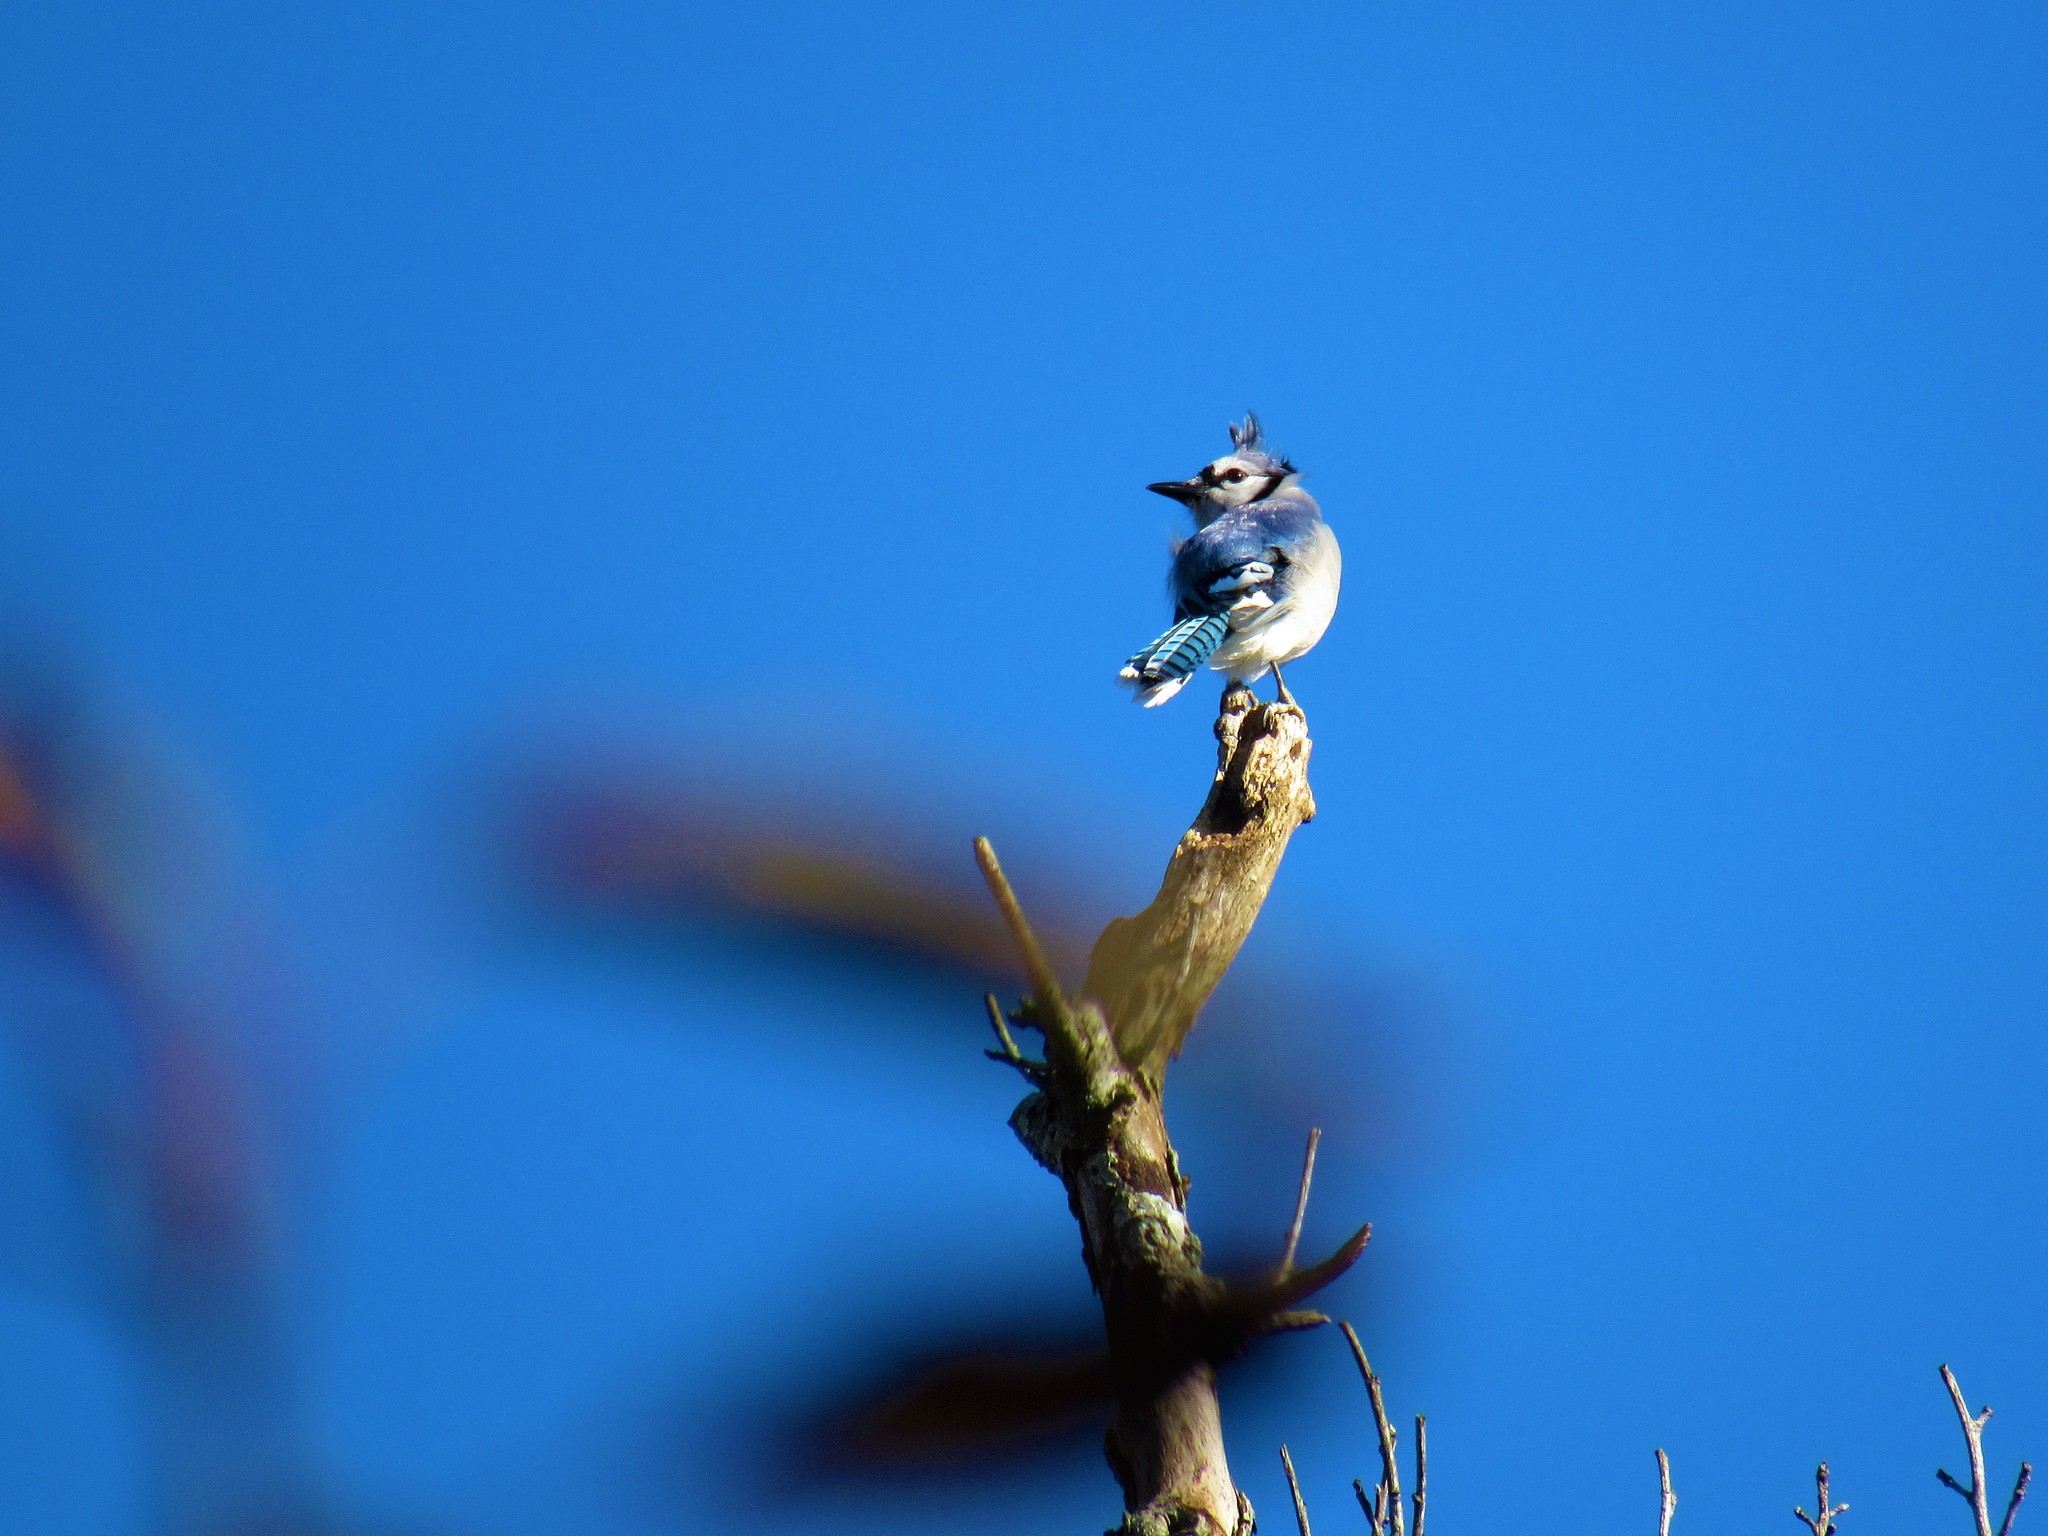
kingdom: Animalia
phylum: Chordata
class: Aves
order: Passeriformes
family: Corvidae
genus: Cyanocitta
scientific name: Cyanocitta cristata
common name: Blue jay
